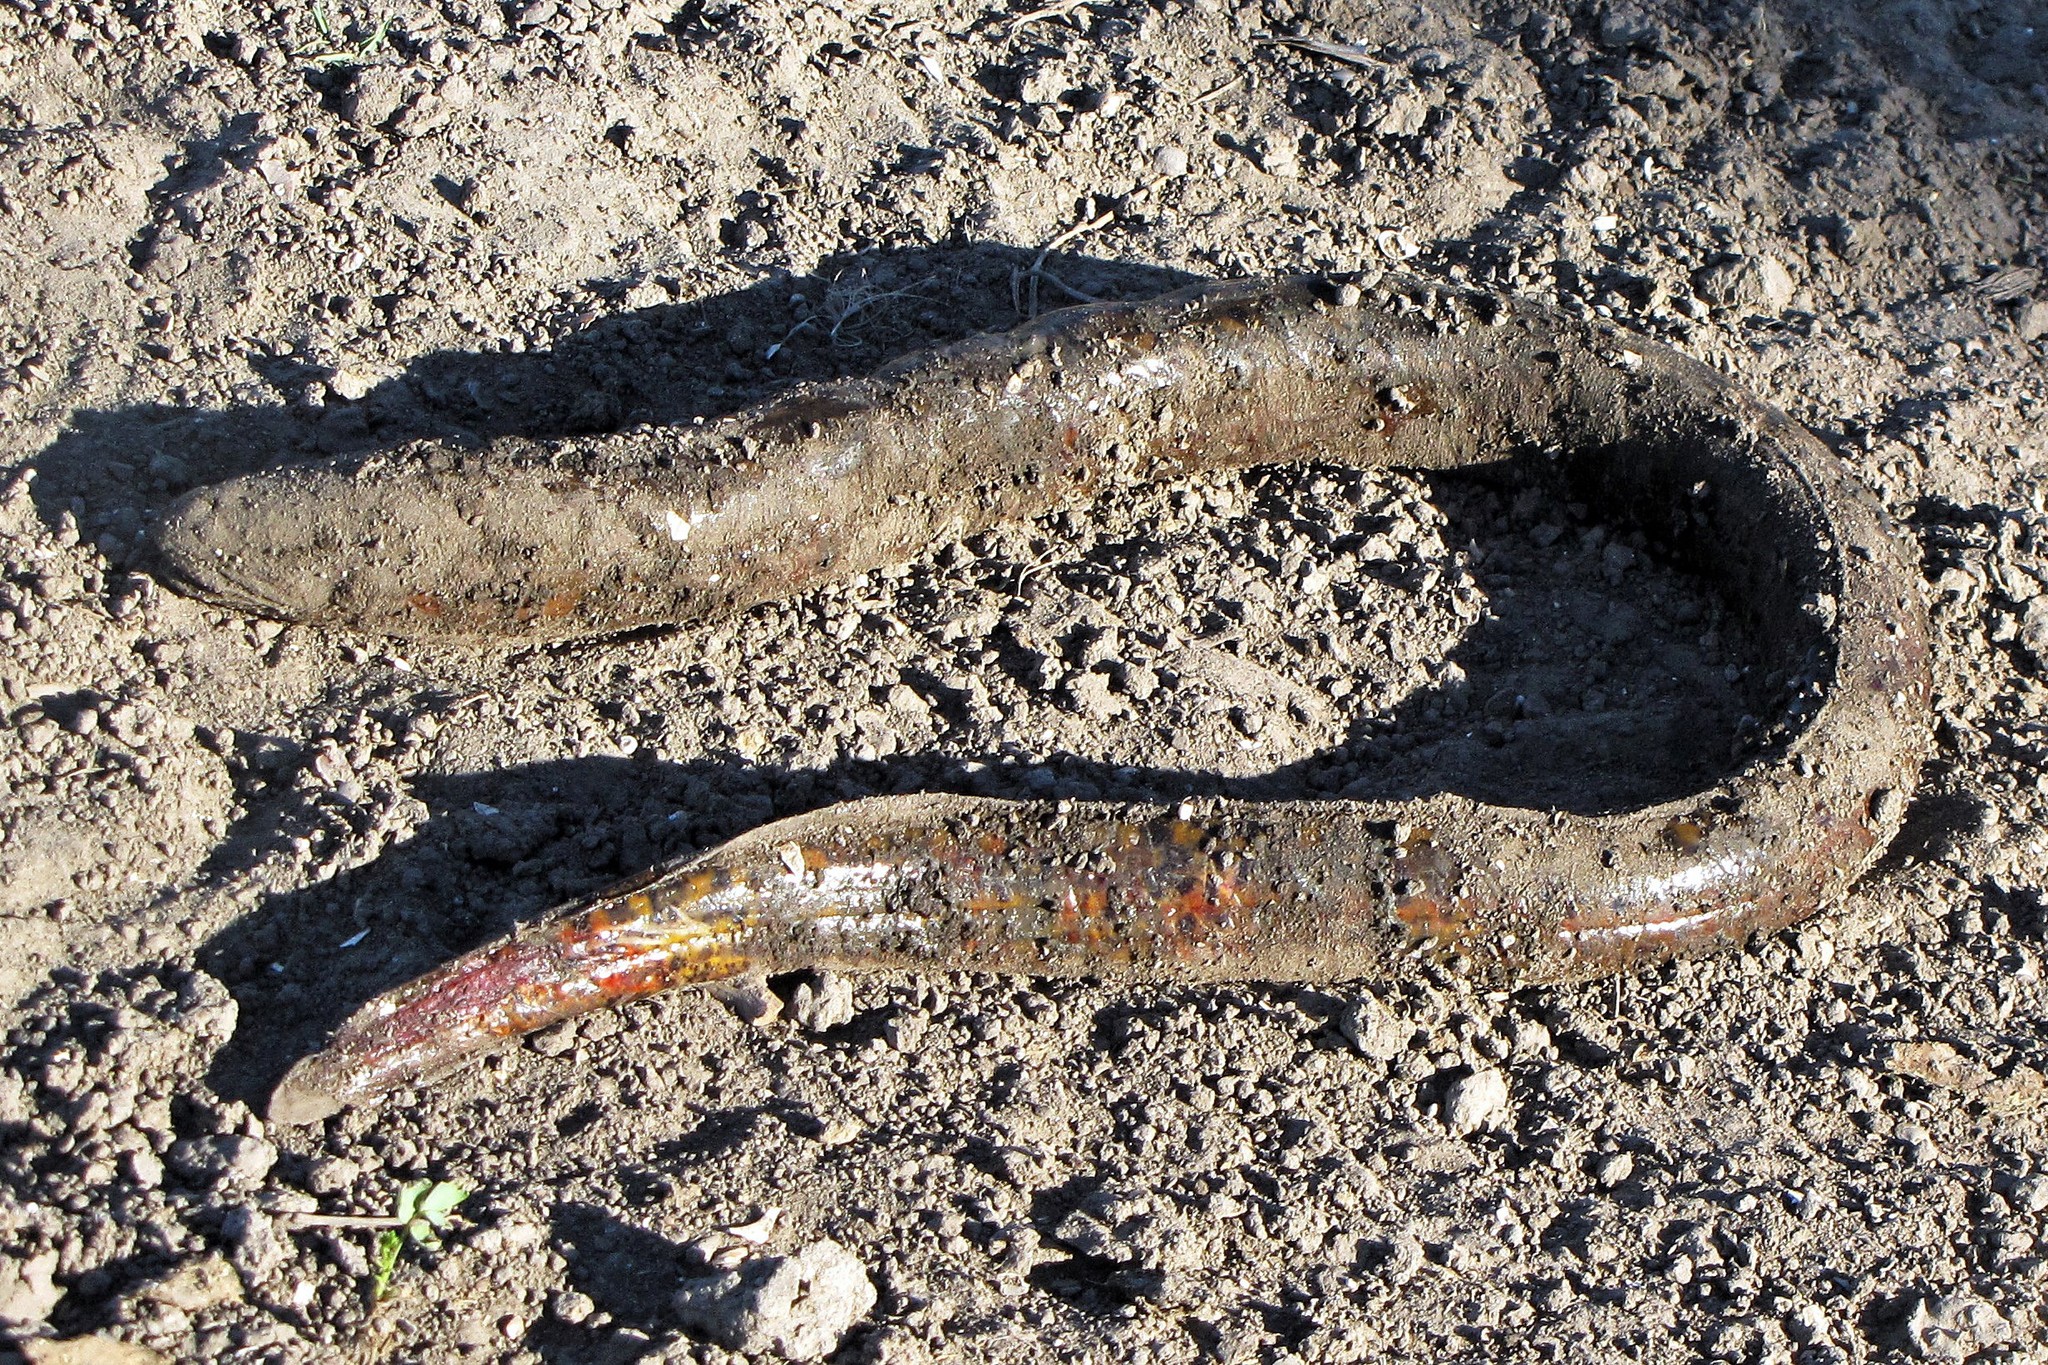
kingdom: Animalia
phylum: Chordata
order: Synbranchiformes
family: Synbranchidae
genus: Synbranchus
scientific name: Synbranchus marmoratus
